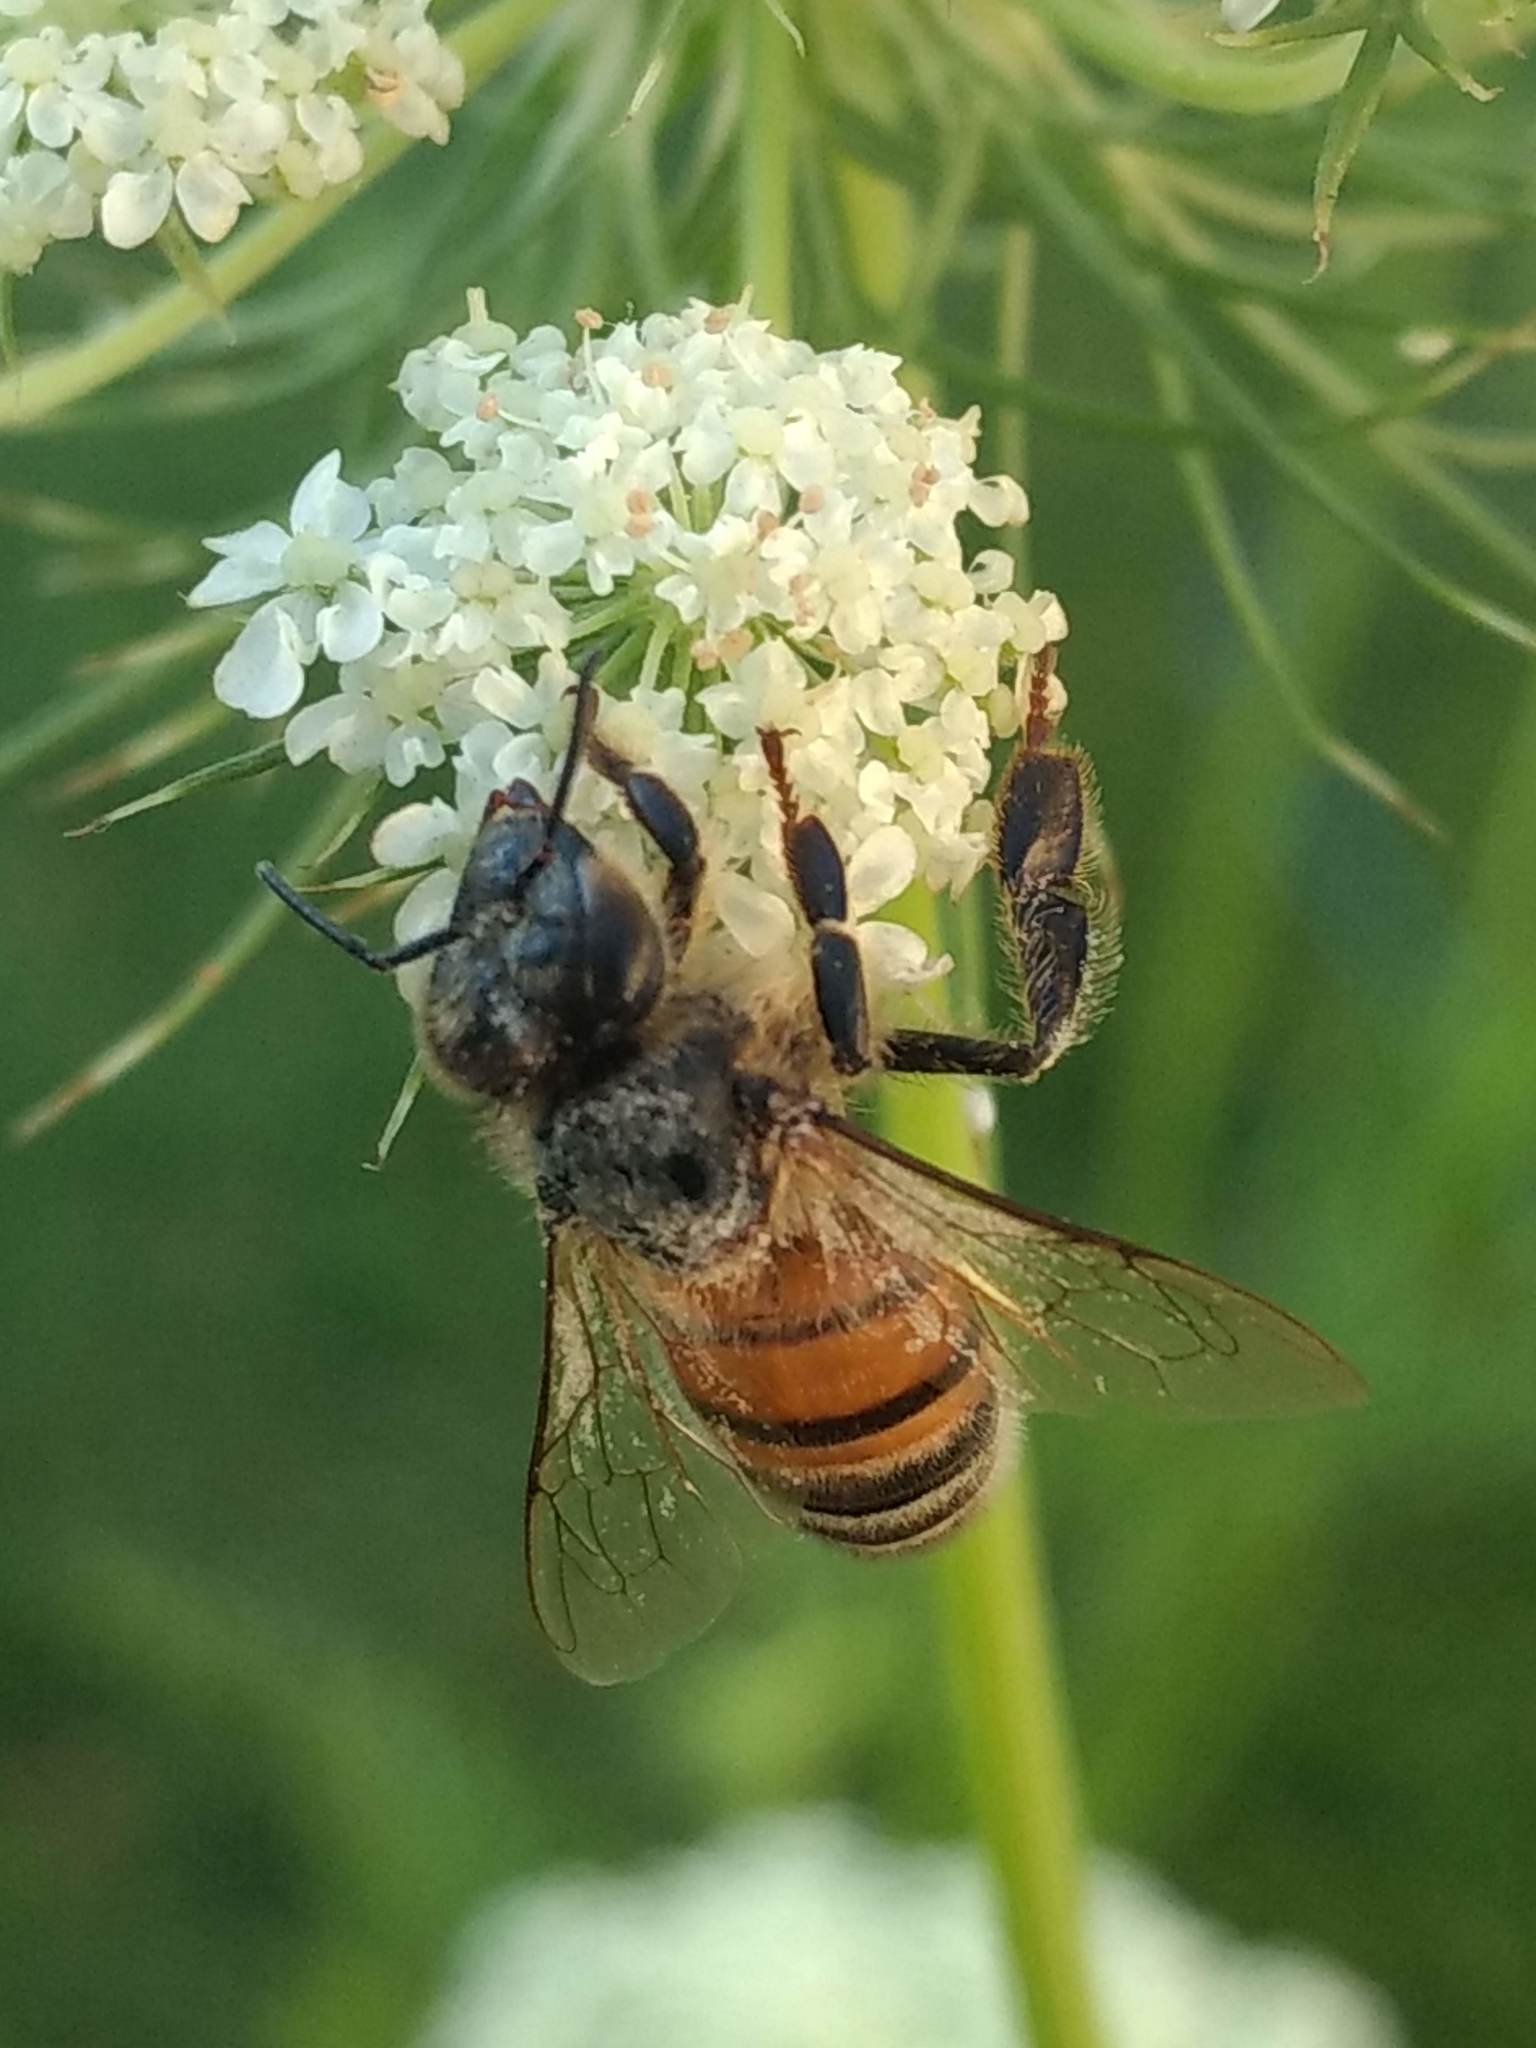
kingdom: Animalia
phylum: Arthropoda
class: Insecta
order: Hymenoptera
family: Apidae
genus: Apis
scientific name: Apis mellifera
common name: Honey bee
